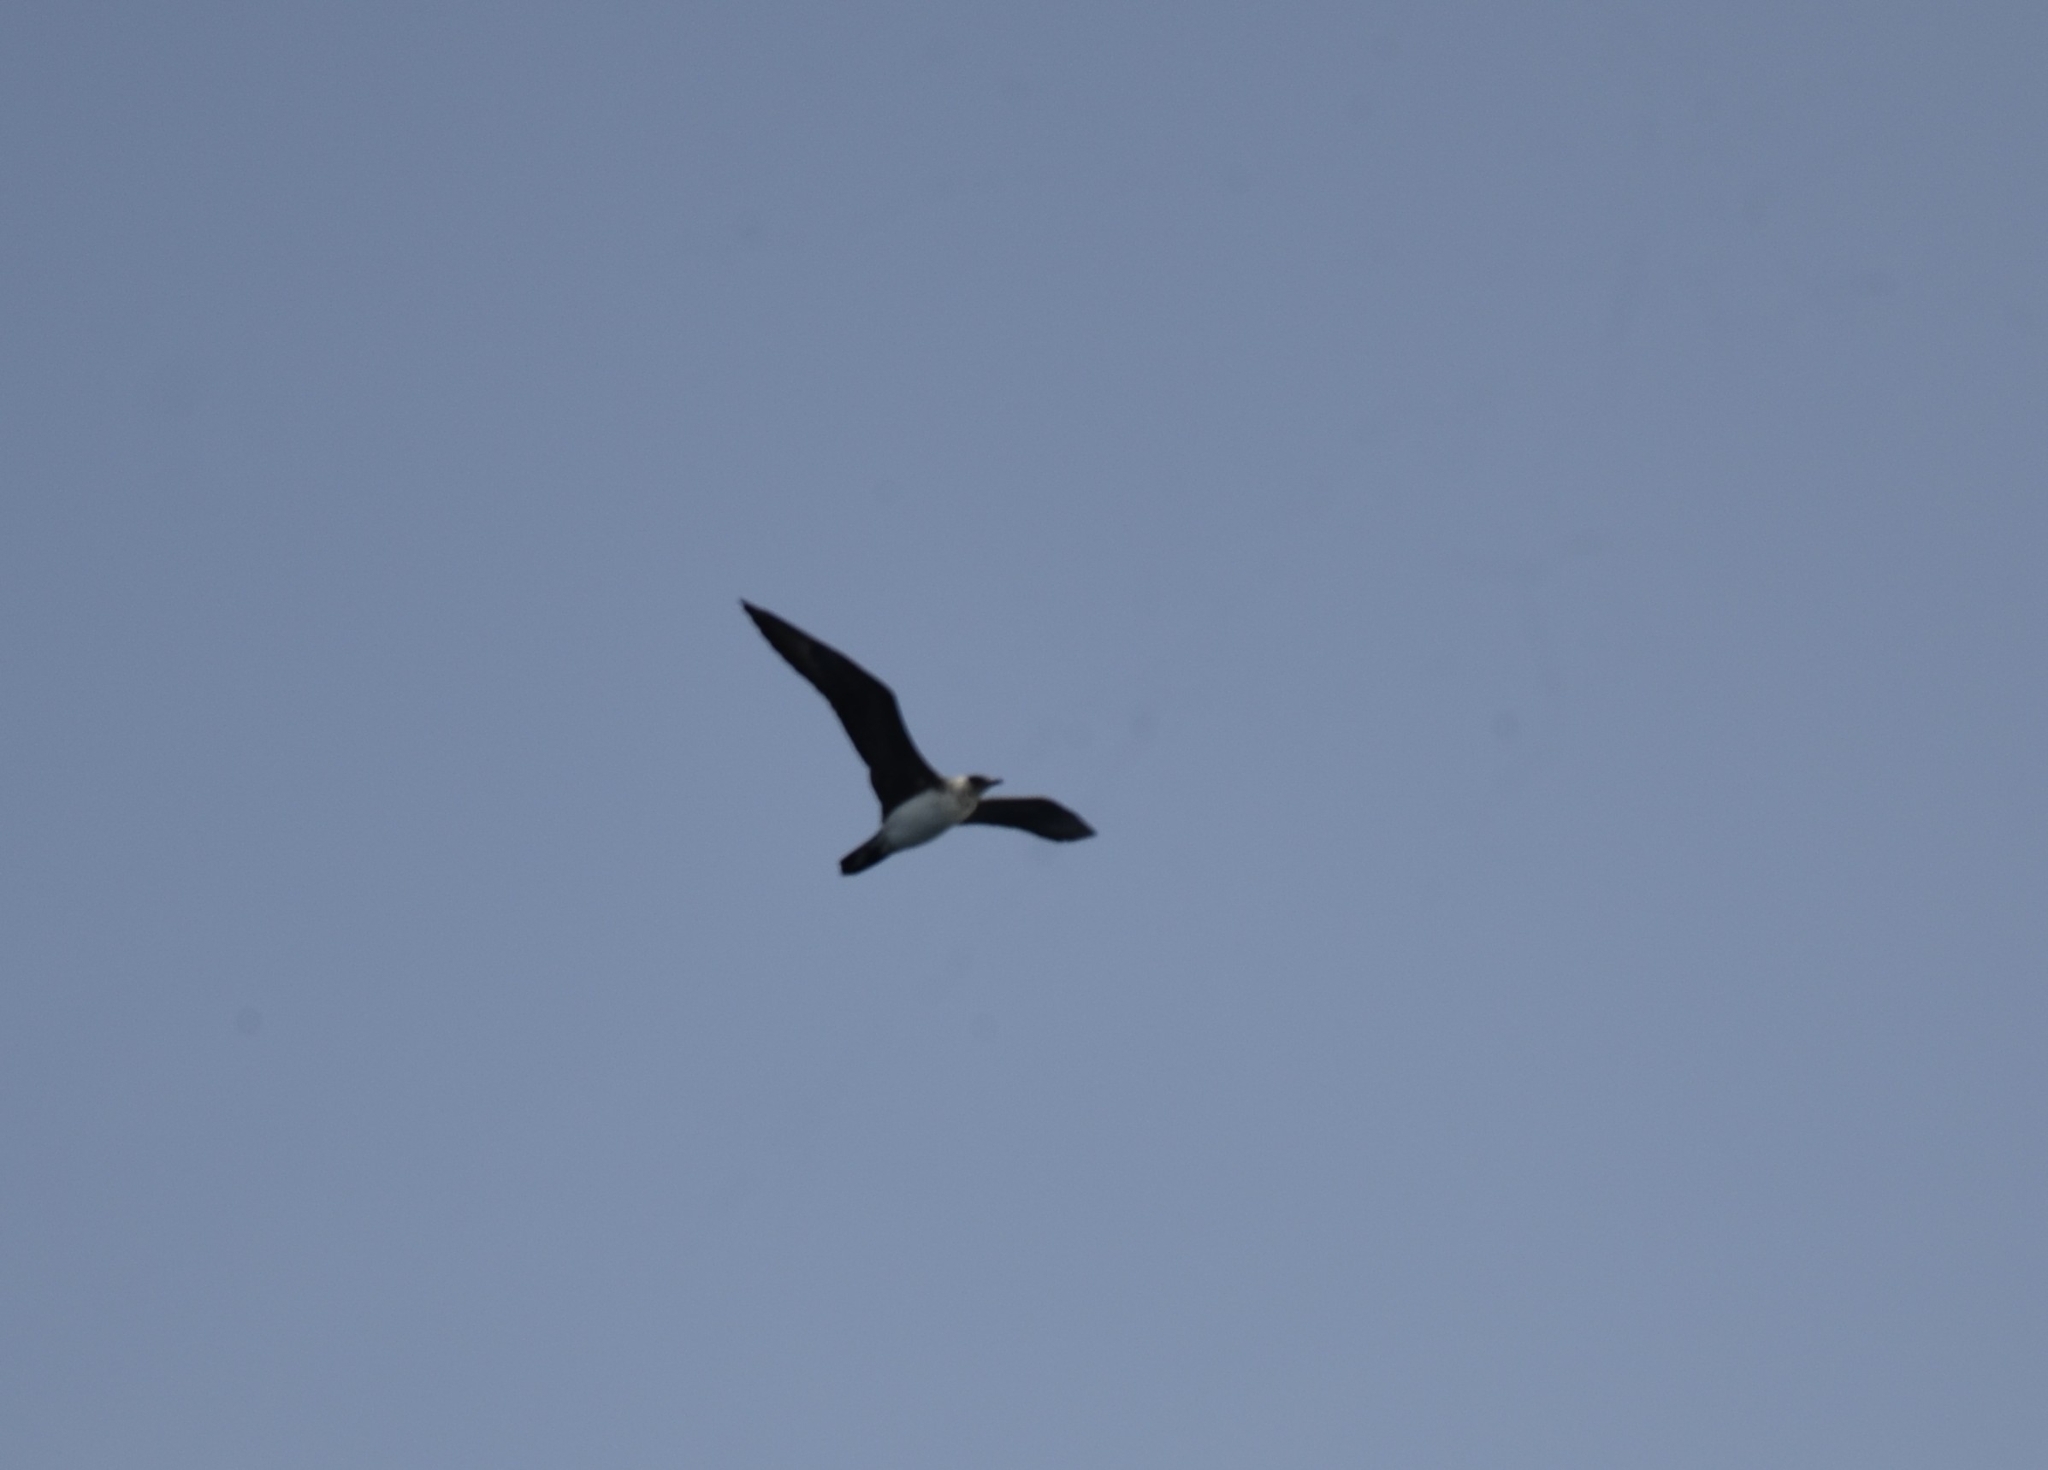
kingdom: Animalia
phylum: Chordata
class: Aves
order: Charadriiformes
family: Stercorariidae
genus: Stercorarius
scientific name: Stercorarius parasiticus
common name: Parasitic jaeger
